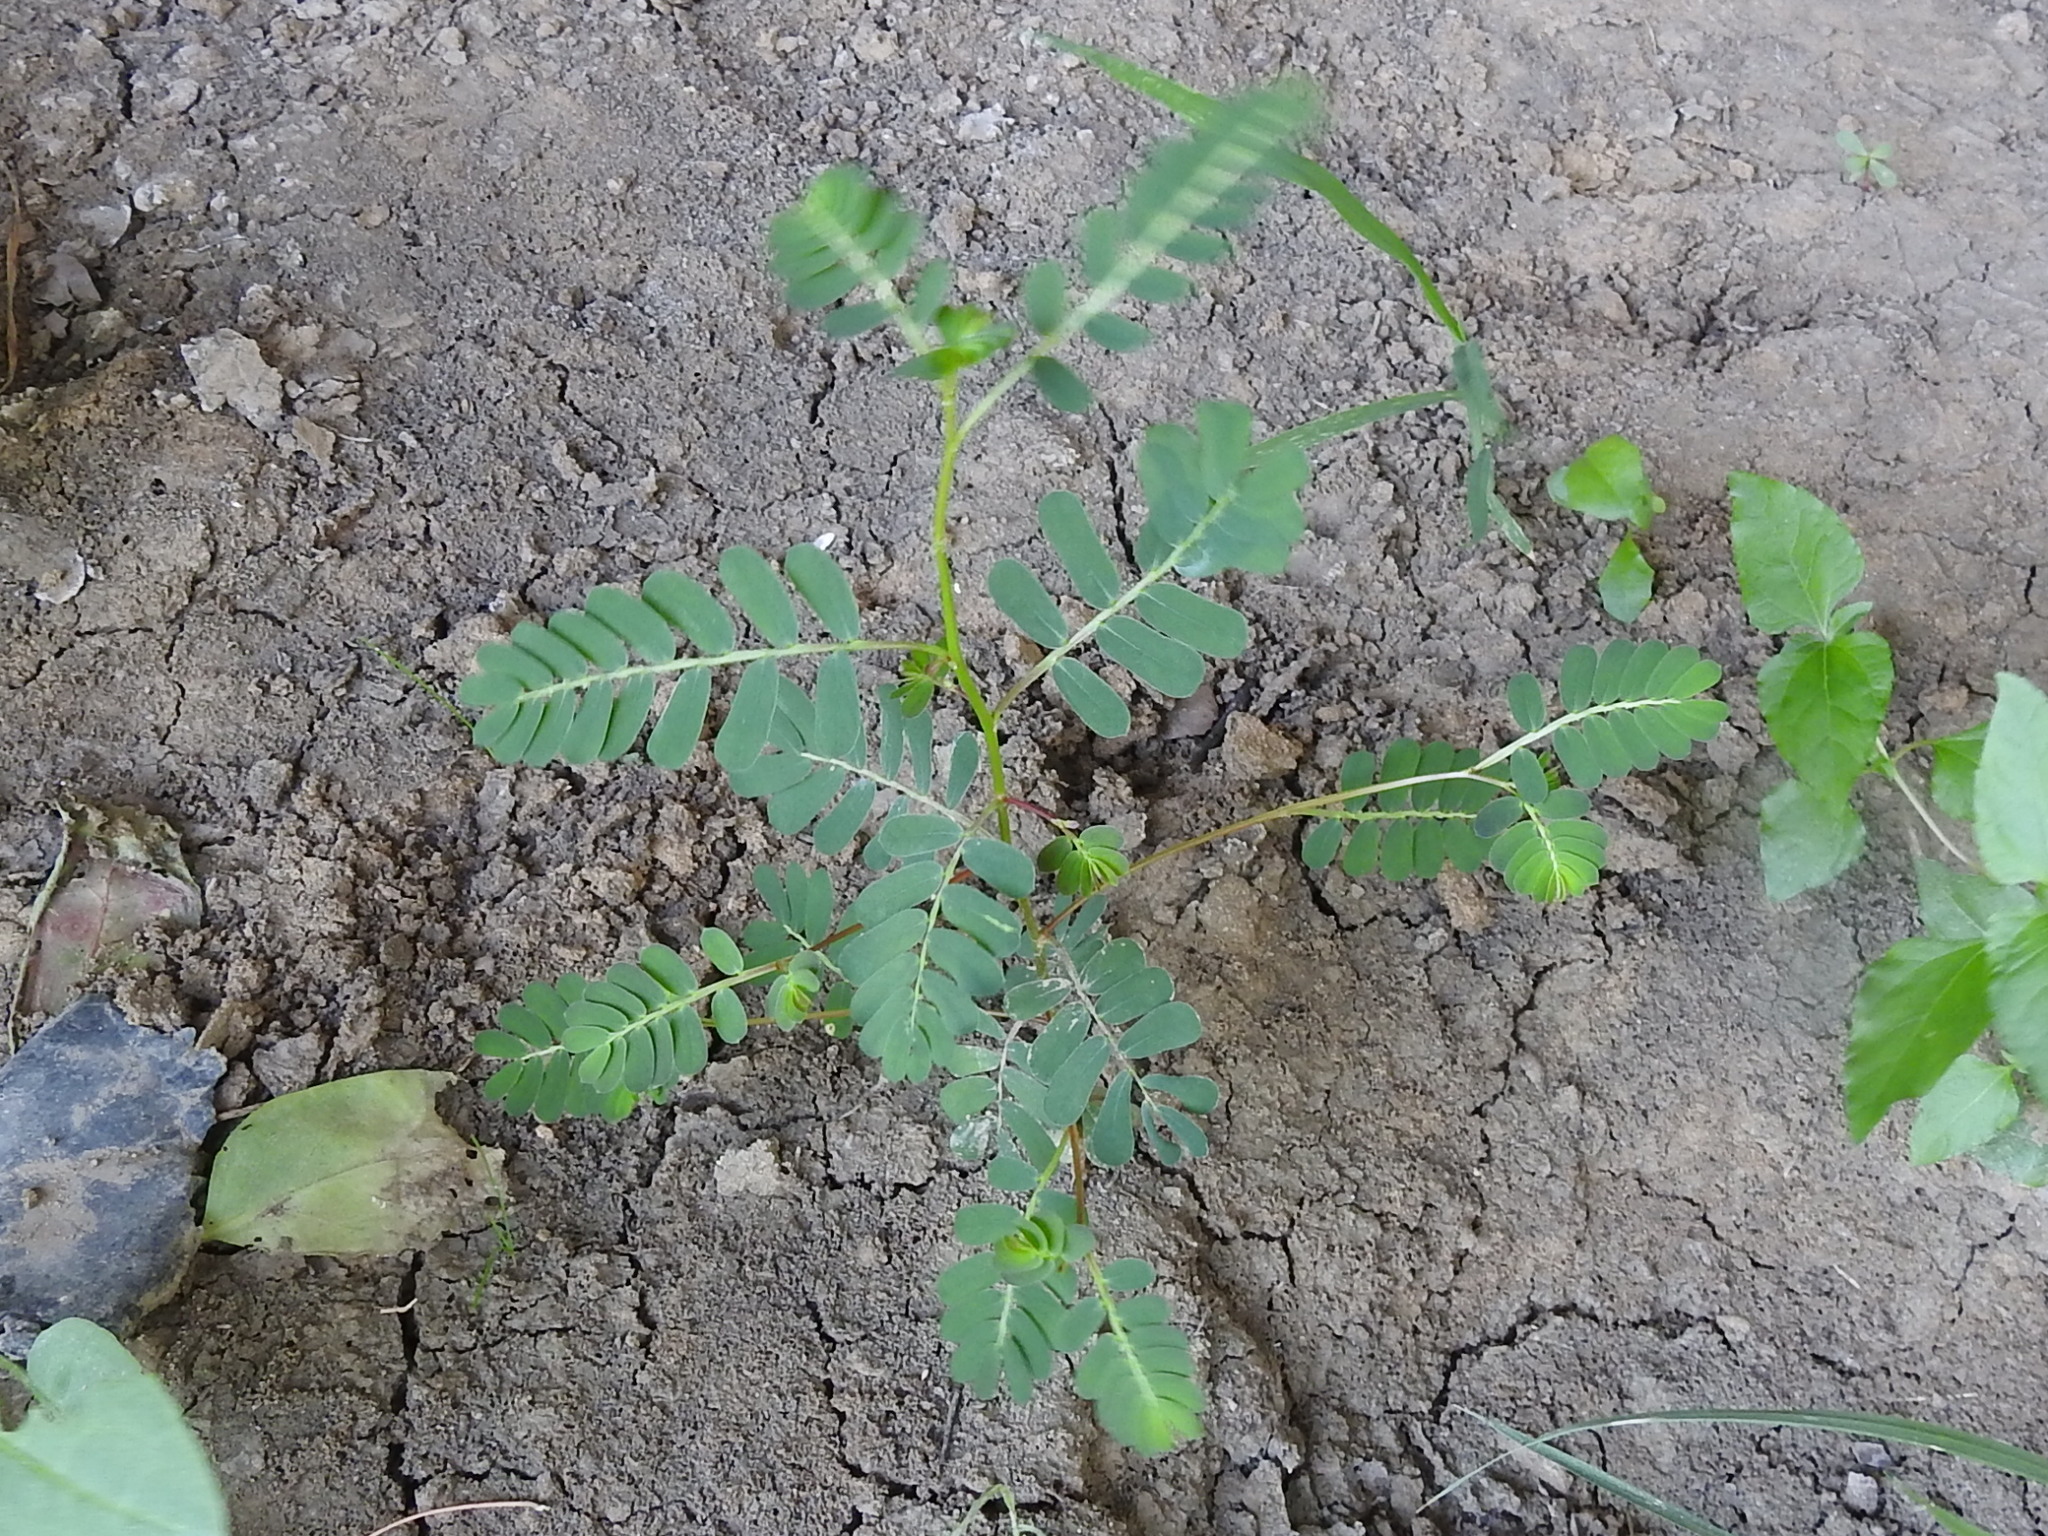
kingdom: Plantae
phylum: Tracheophyta
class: Magnoliopsida
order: Malpighiales
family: Phyllanthaceae
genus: Phyllanthus
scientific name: Phyllanthus urinaria
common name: Chamber bitter
